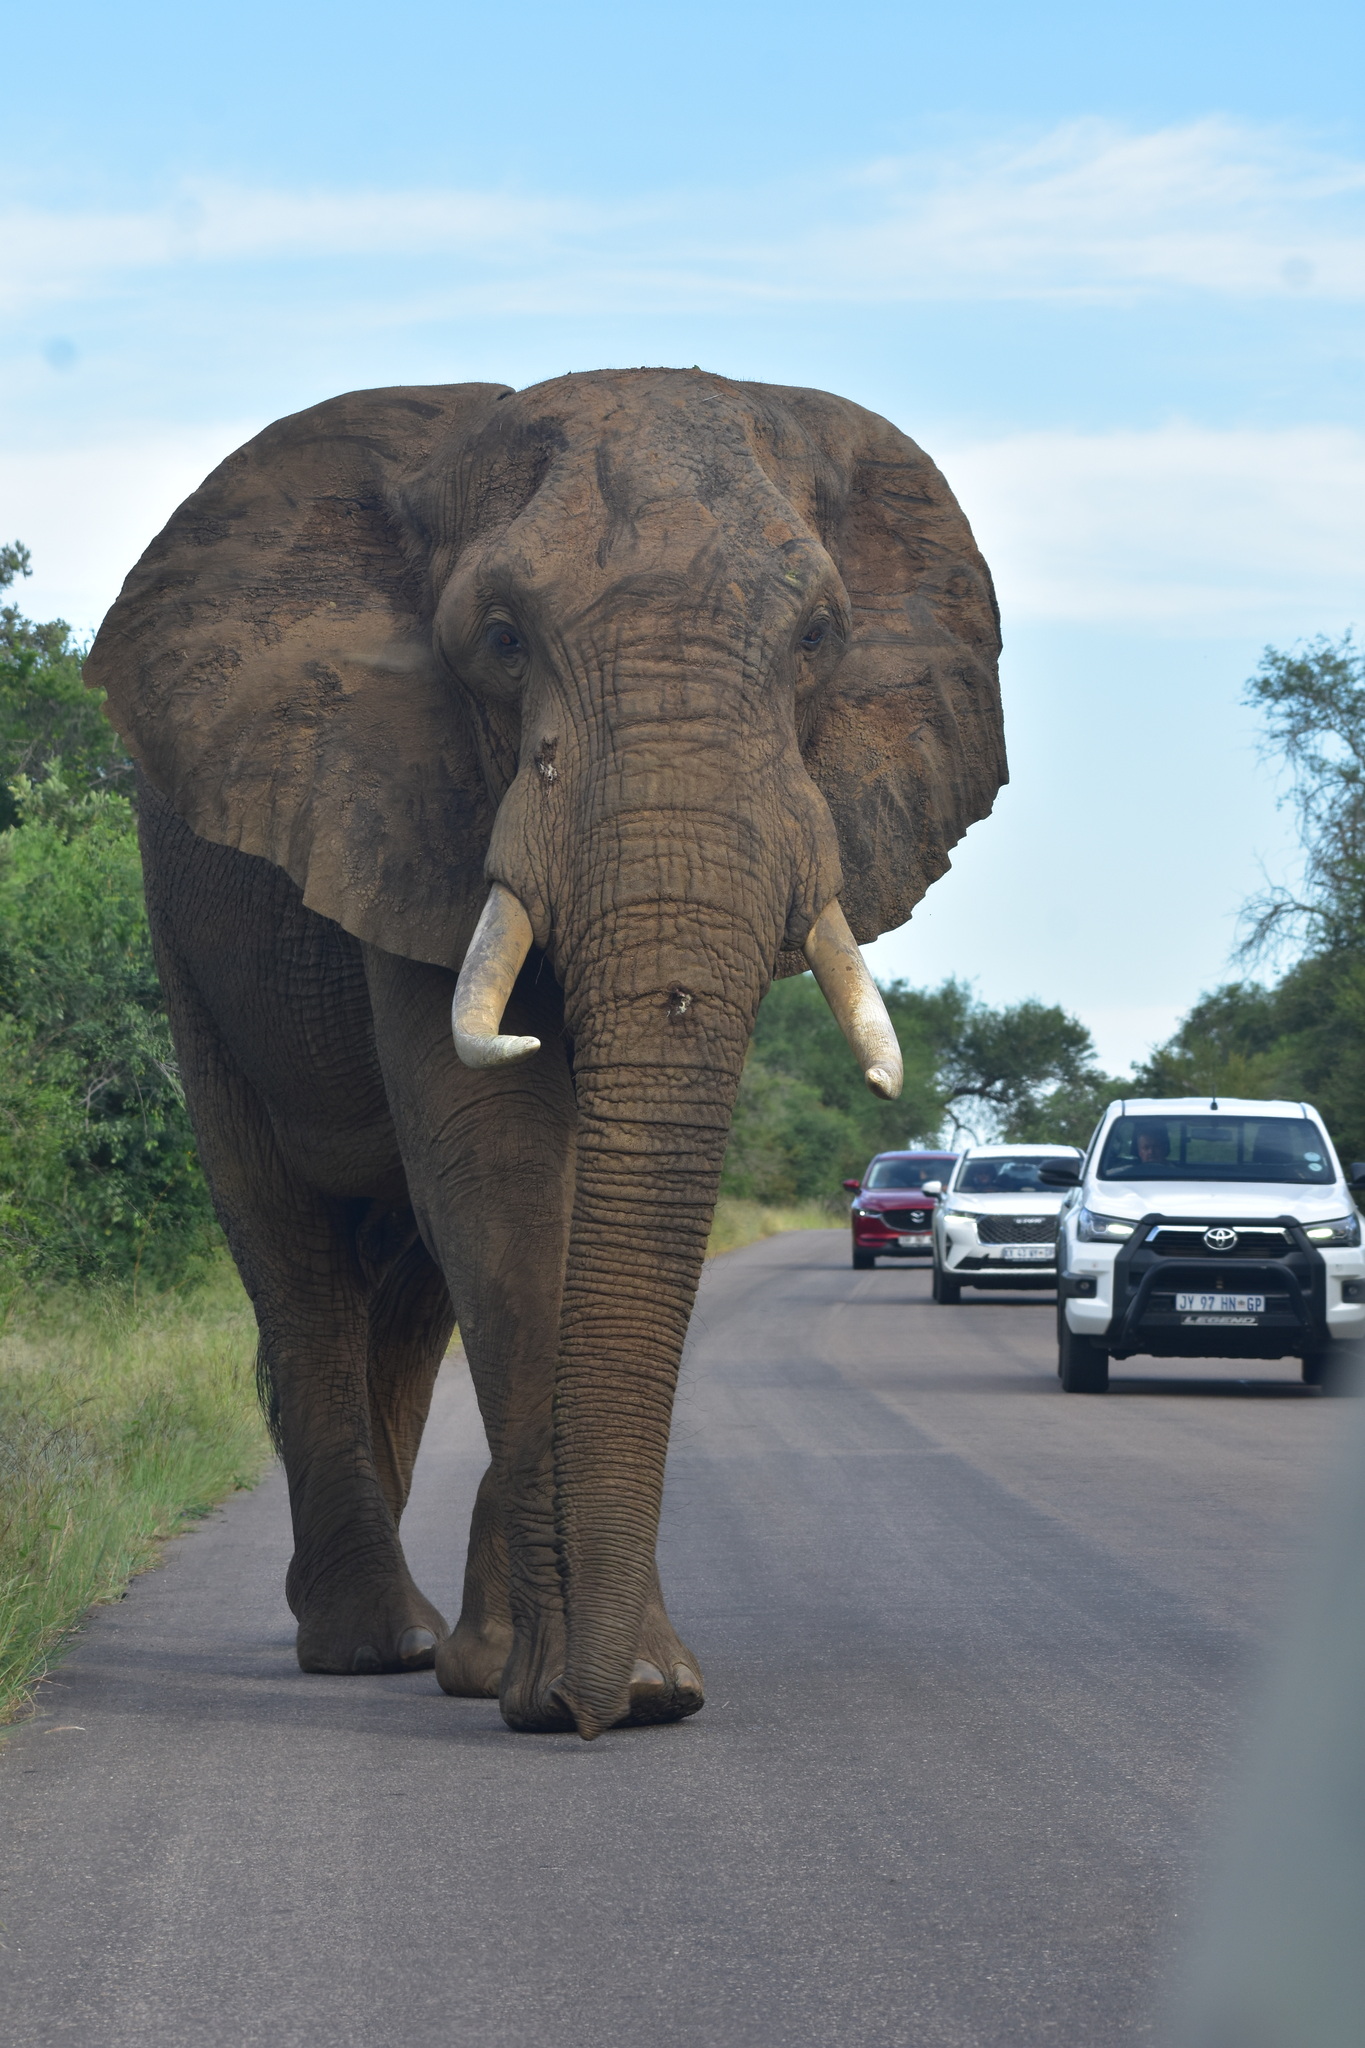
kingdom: Animalia
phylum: Chordata
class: Mammalia
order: Proboscidea
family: Elephantidae
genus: Loxodonta
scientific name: Loxodonta africana
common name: African elephant
